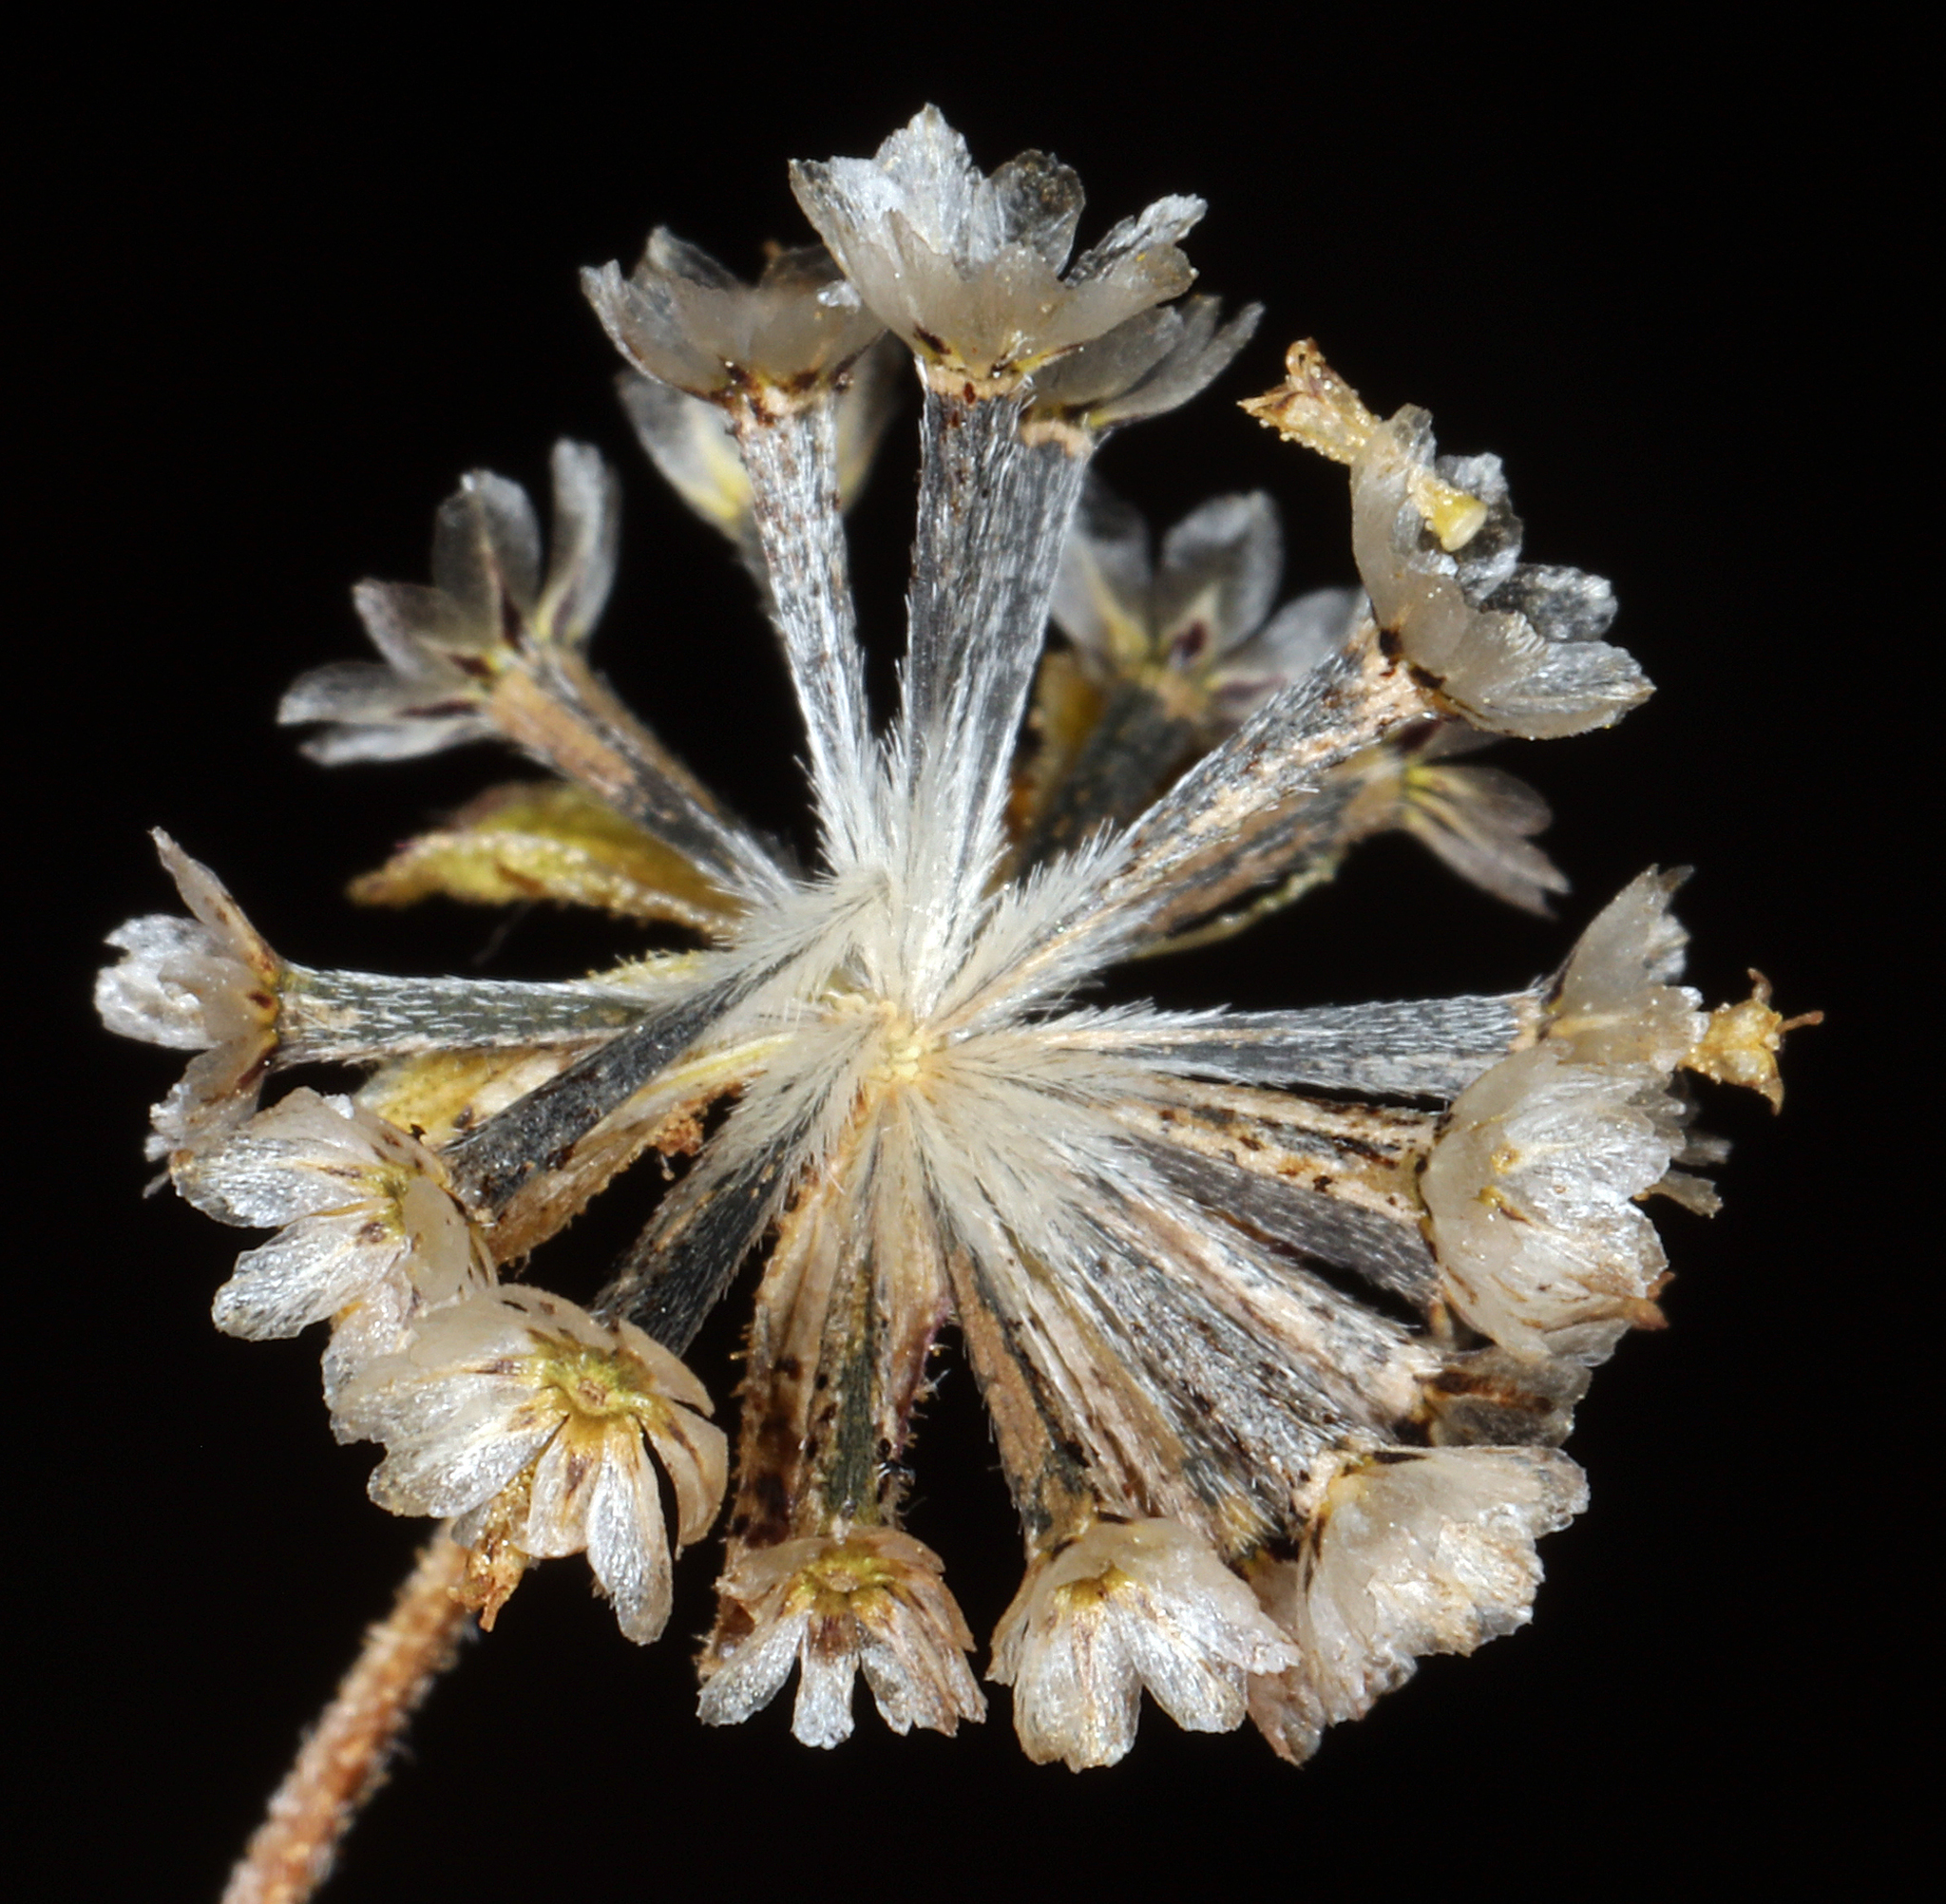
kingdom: Plantae
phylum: Tracheophyta
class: Magnoliopsida
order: Asterales
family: Asteraceae
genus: Picradeniopsis
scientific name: Picradeniopsis multiflora
